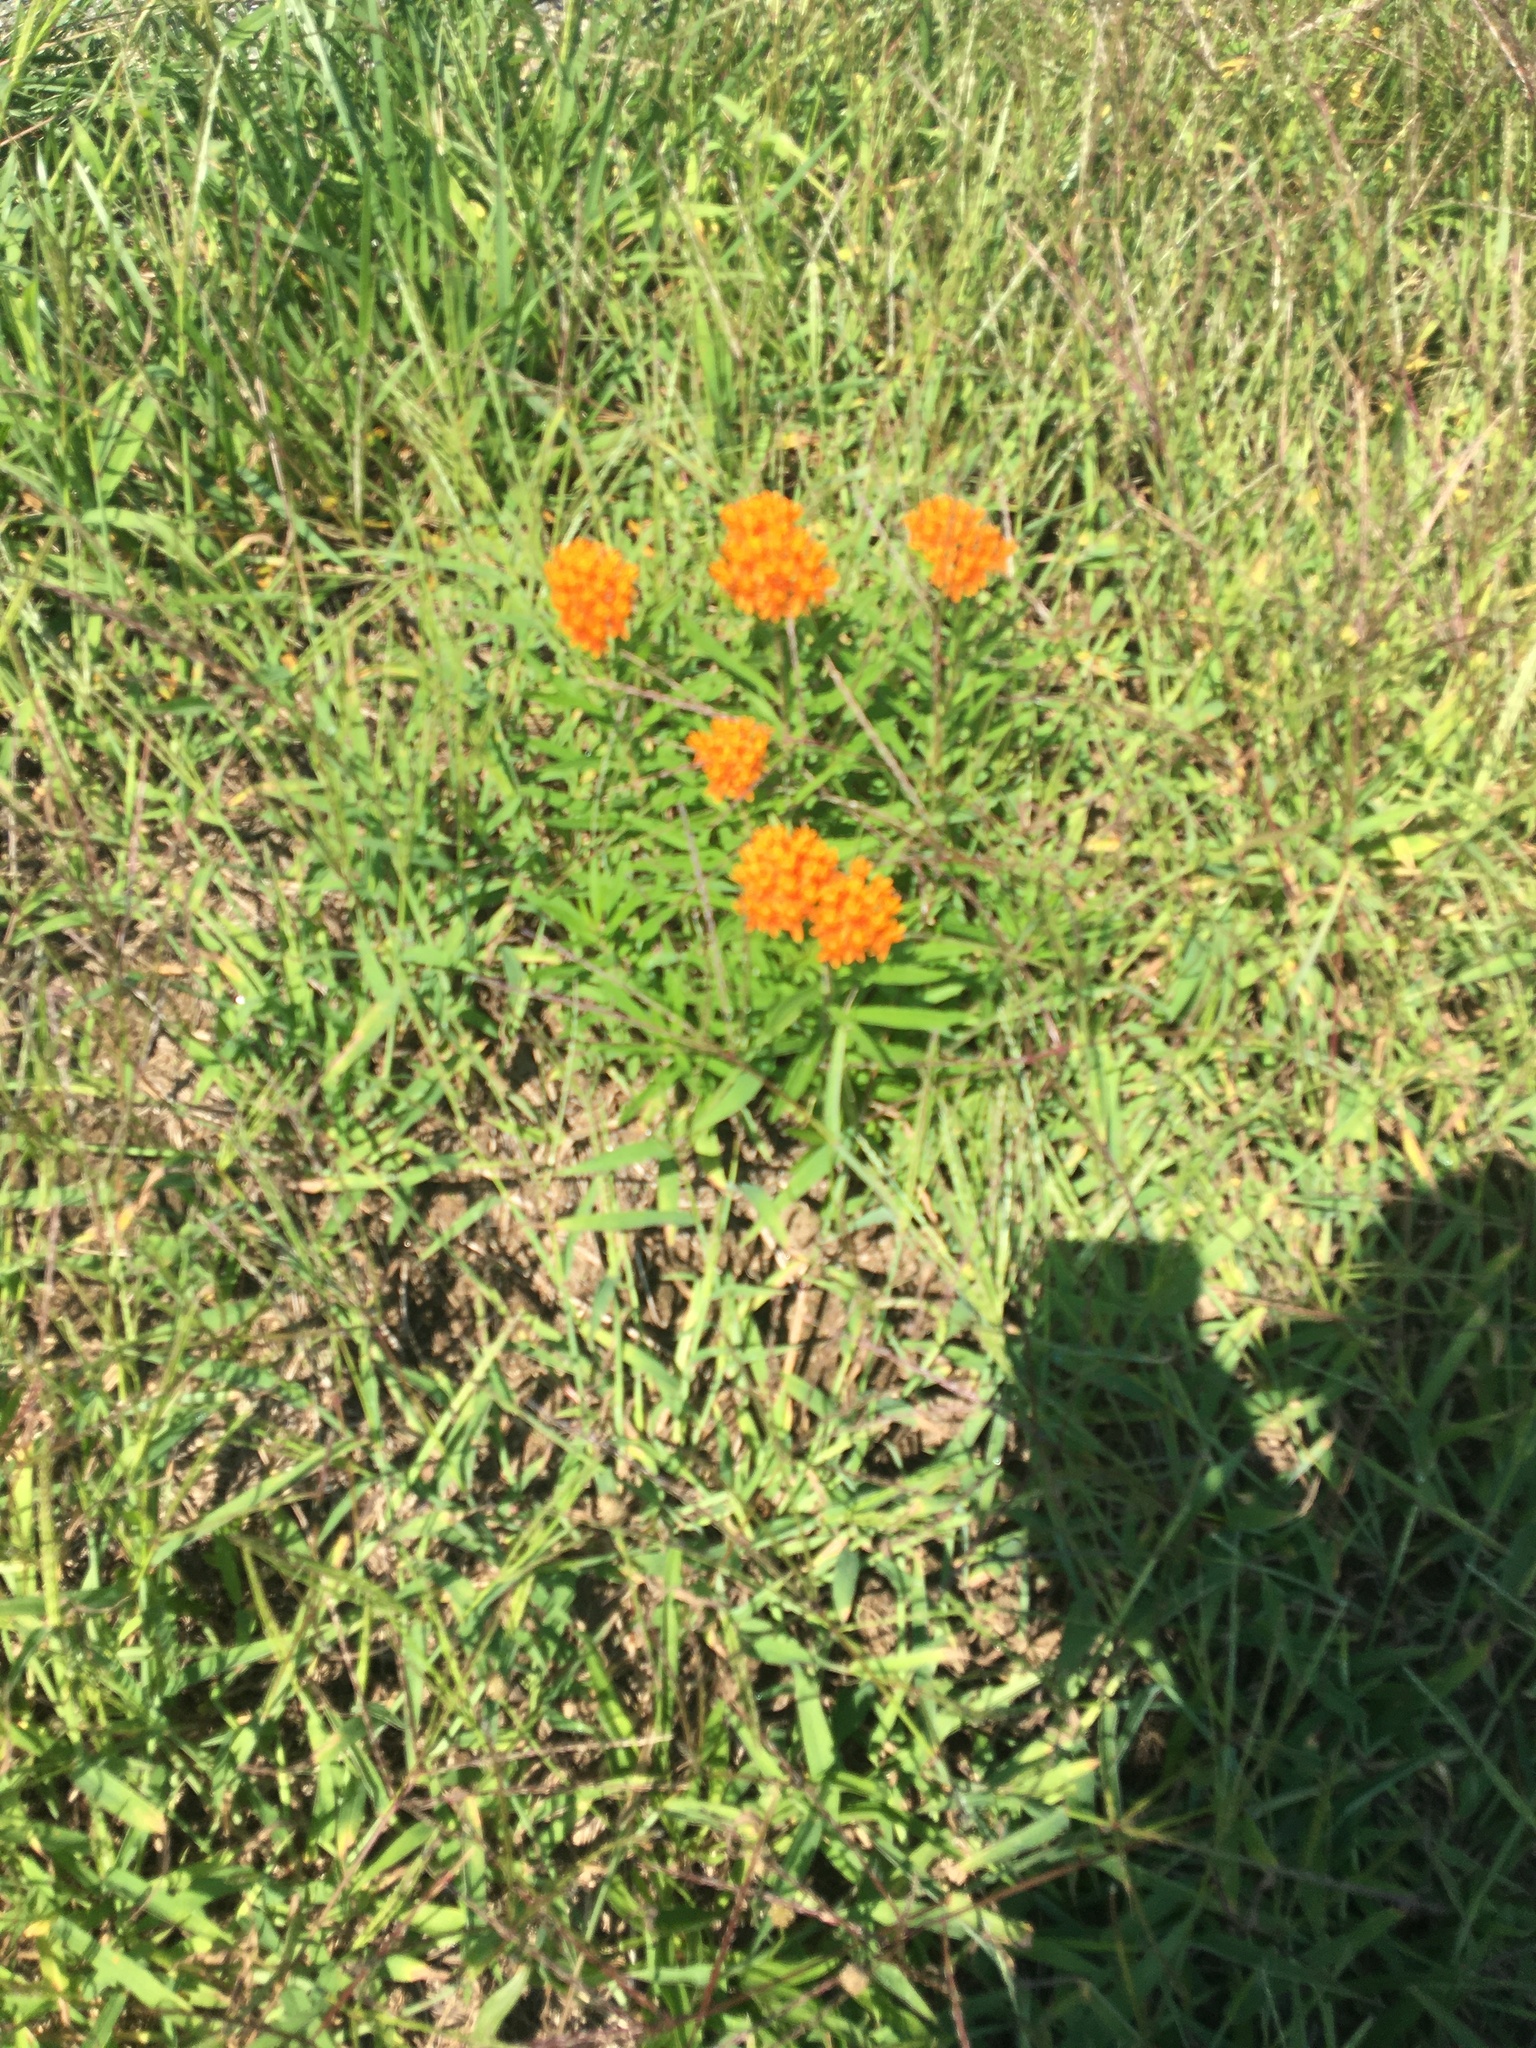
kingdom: Plantae
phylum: Tracheophyta
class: Magnoliopsida
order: Gentianales
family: Apocynaceae
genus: Asclepias
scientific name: Asclepias tuberosa
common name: Butterfly milkweed
